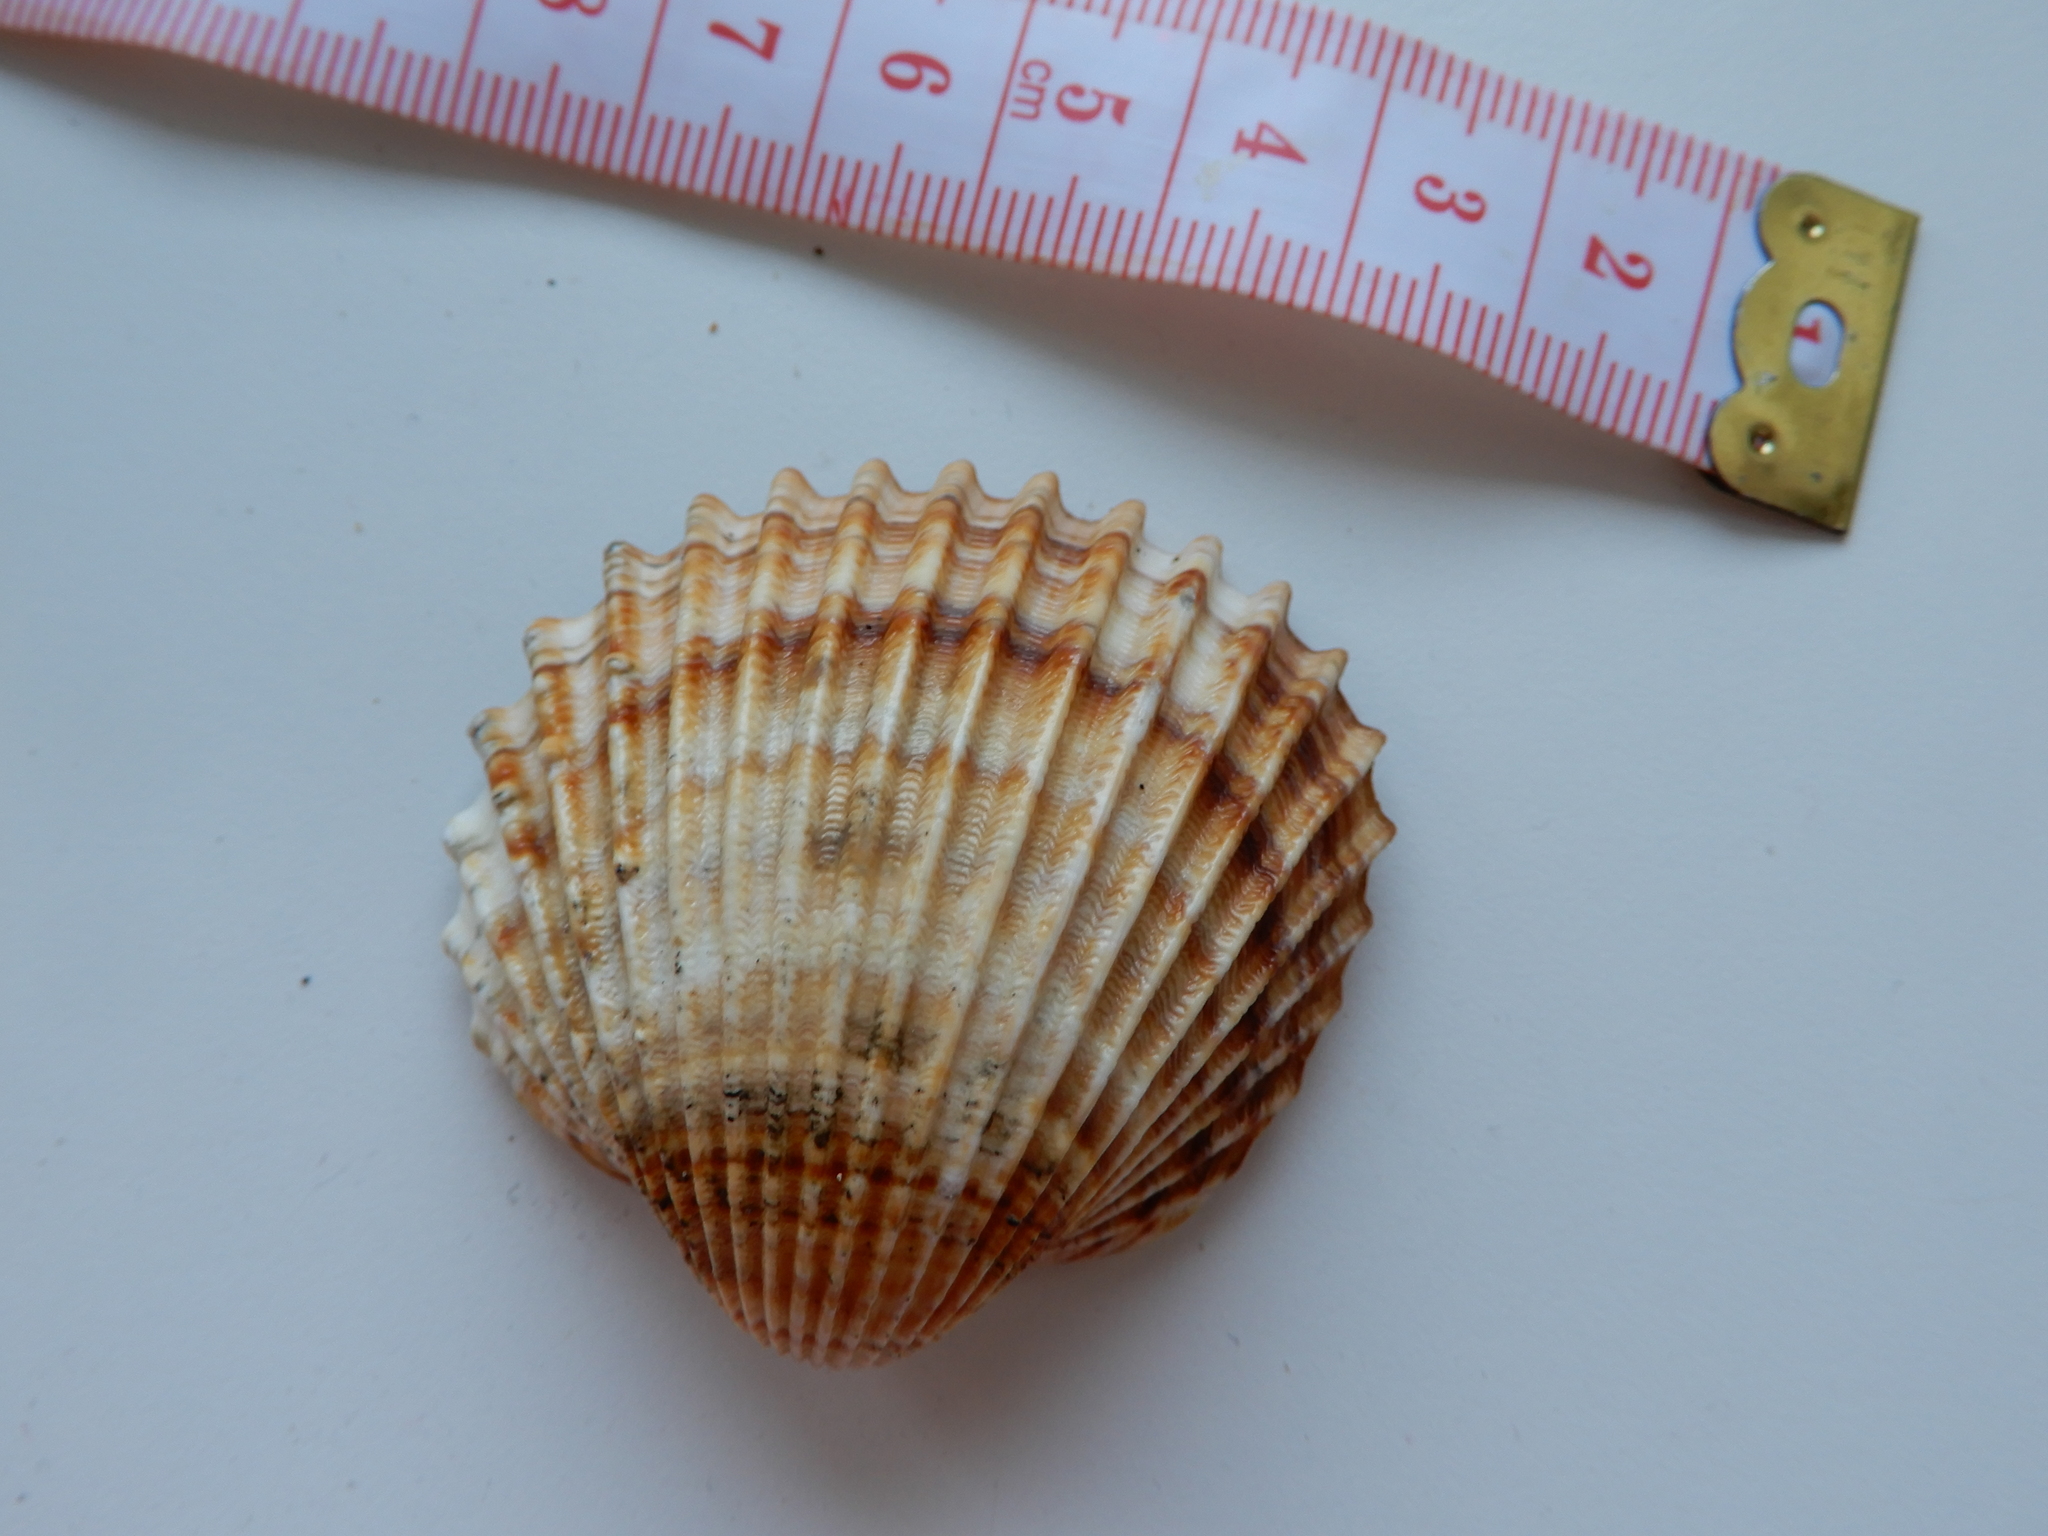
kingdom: Animalia
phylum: Mollusca
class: Bivalvia
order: Cardiida
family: Cardiidae
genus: Acanthocardia
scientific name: Acanthocardia tuberculata
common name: Rough cockle
